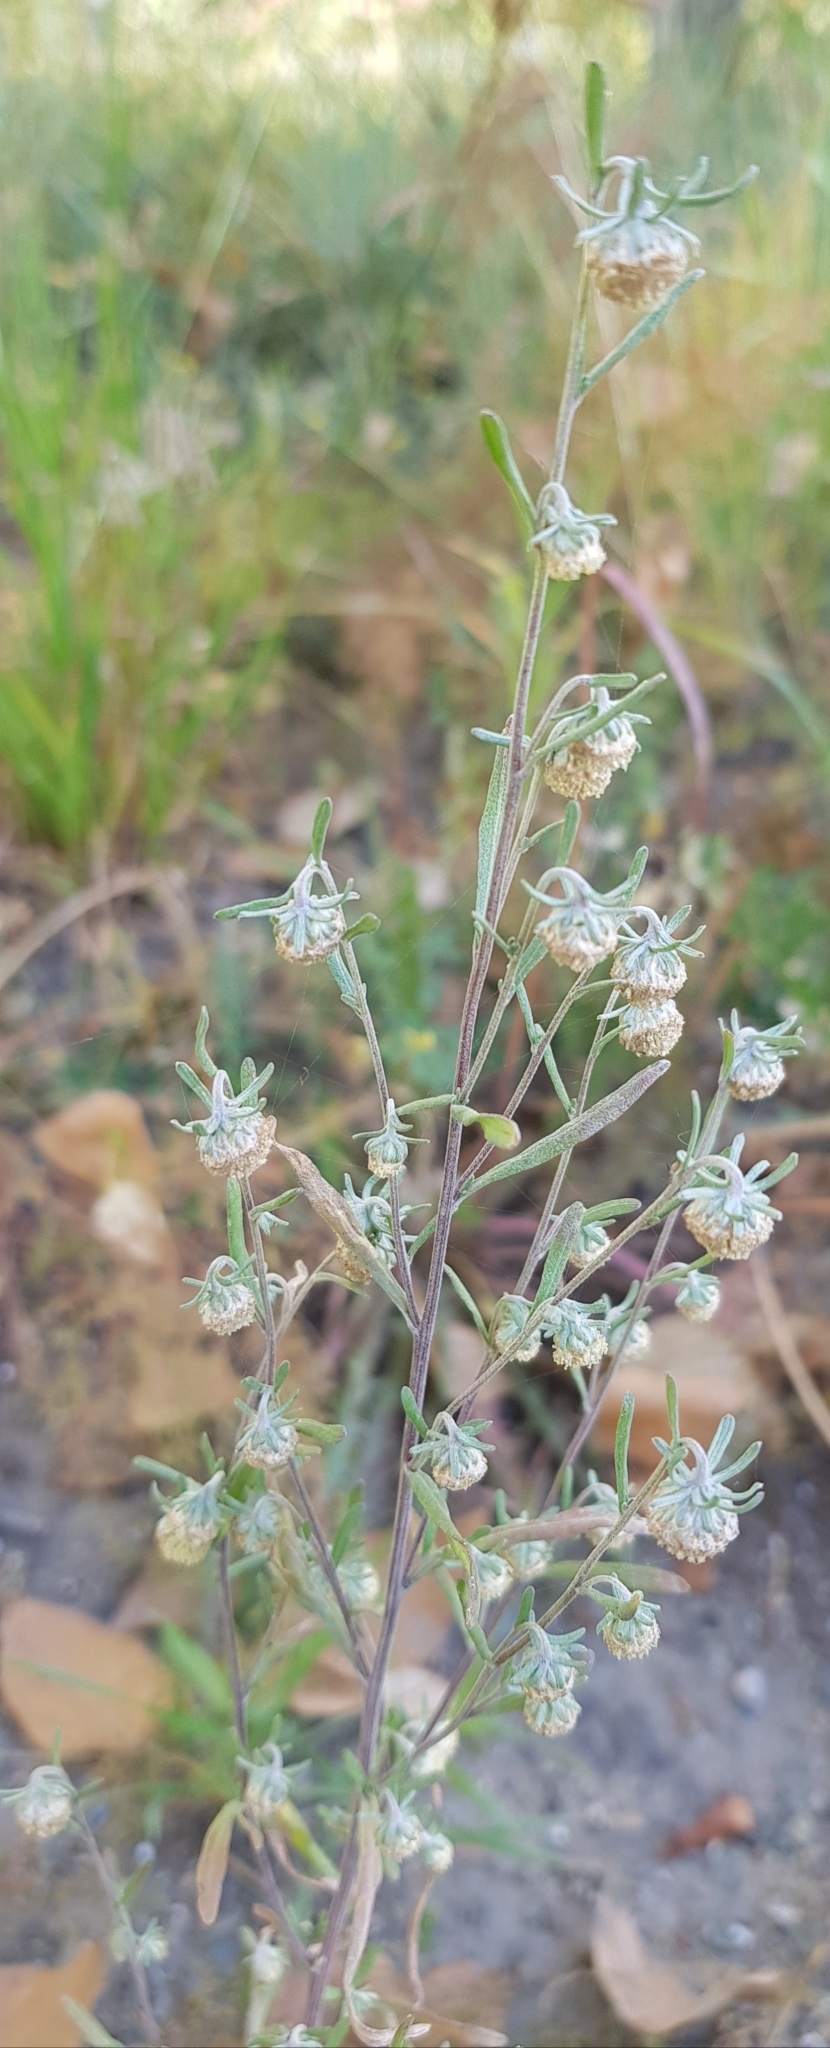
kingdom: Plantae
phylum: Tracheophyta
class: Magnoliopsida
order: Asterales
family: Asteraceae
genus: Artemisia
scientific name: Artemisia macrocephala
